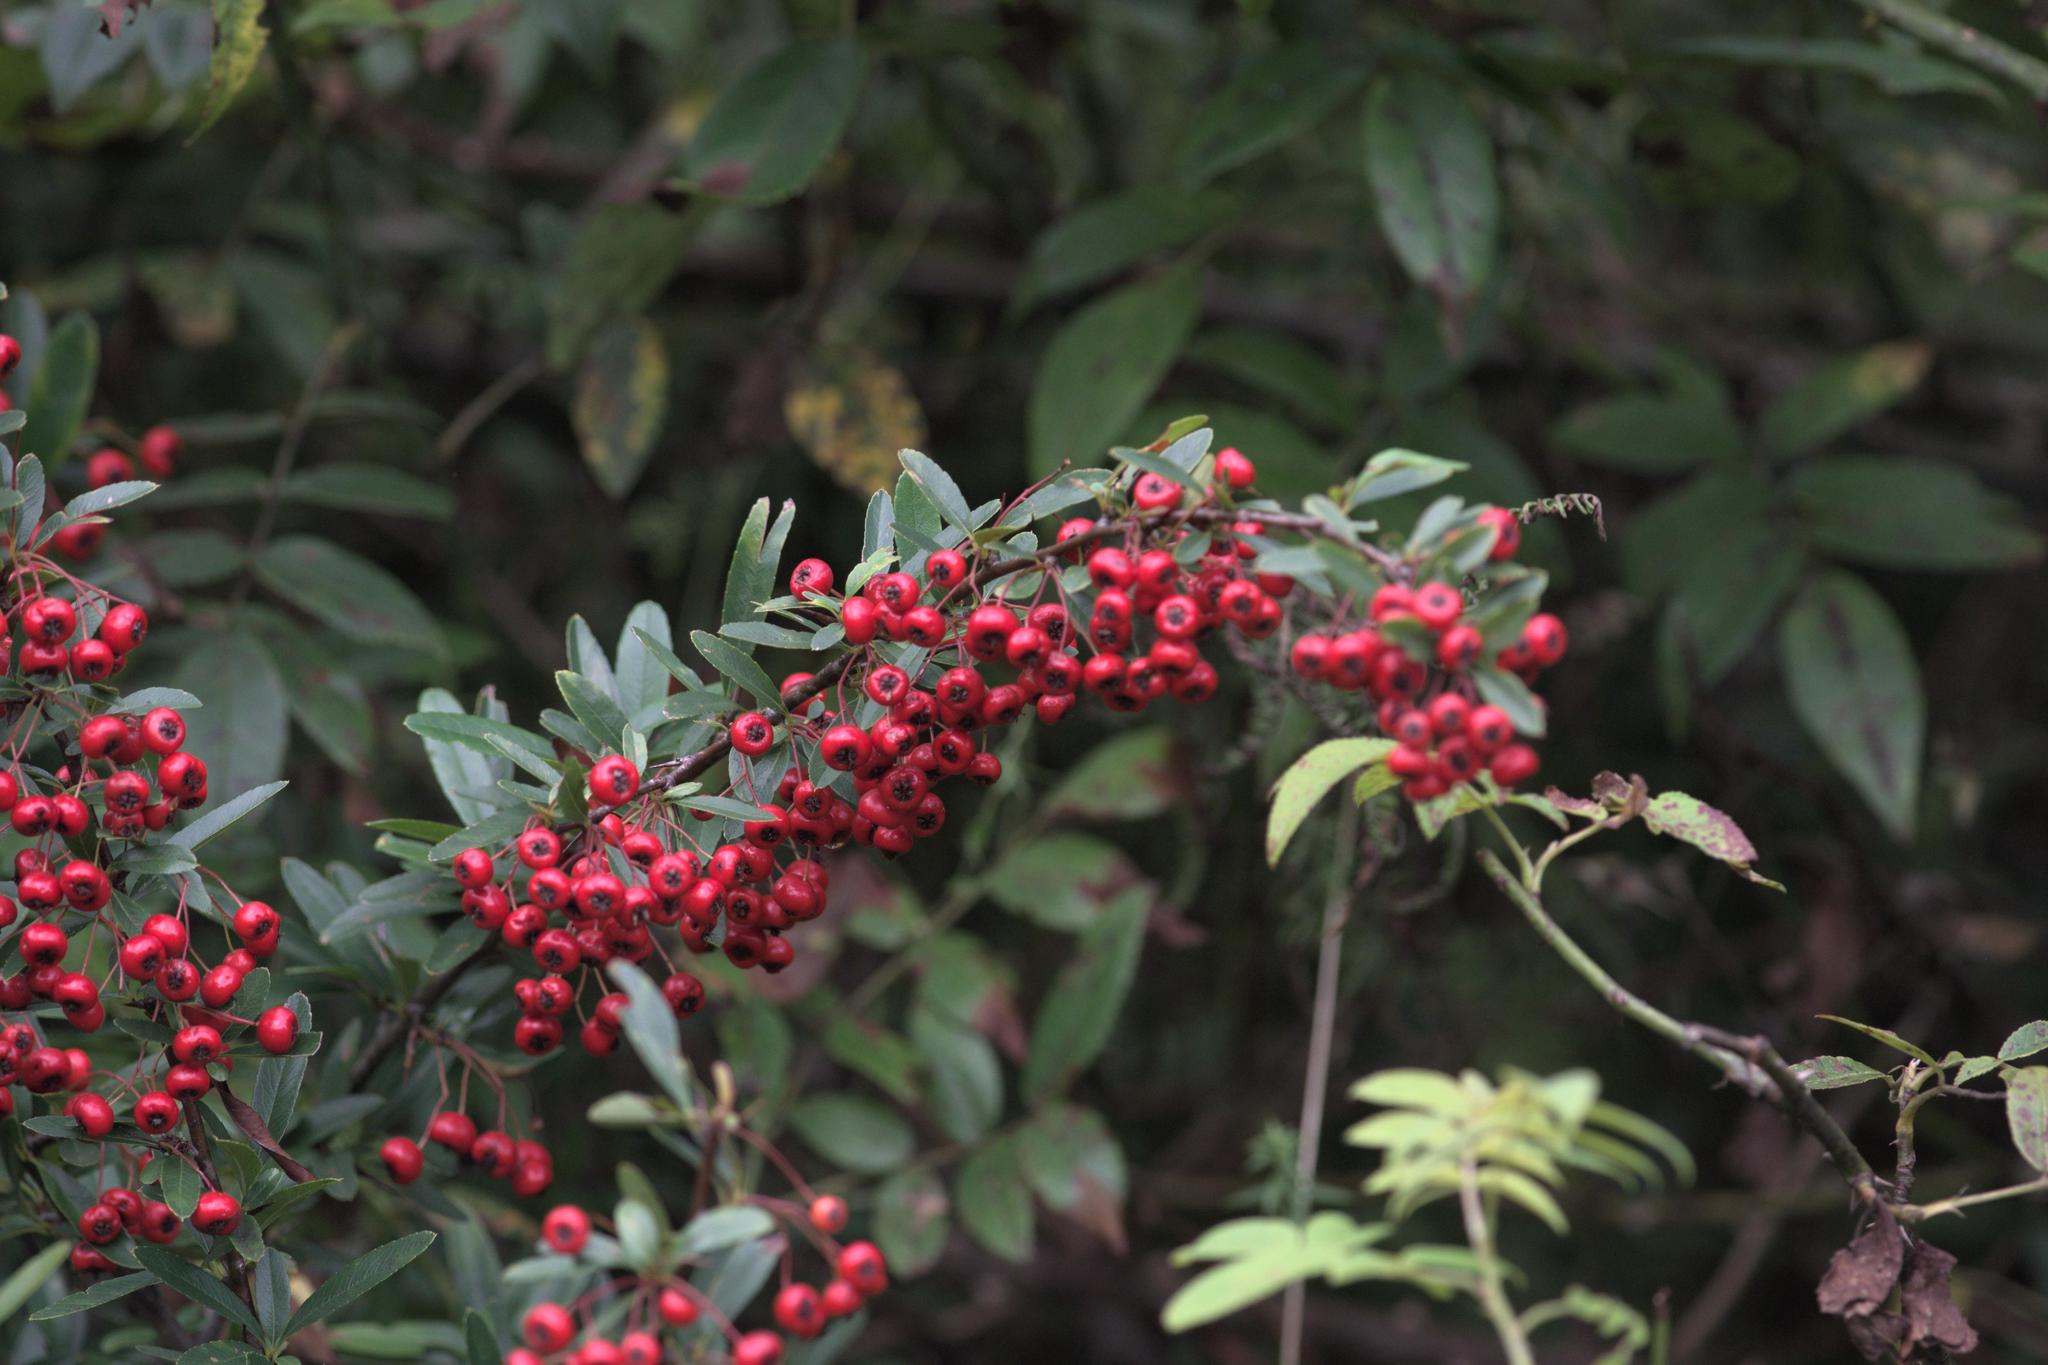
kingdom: Plantae
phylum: Tracheophyta
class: Magnoliopsida
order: Rosales
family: Rosaceae
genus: Pyracantha
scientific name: Pyracantha crenulata
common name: Nepalese firethorn
